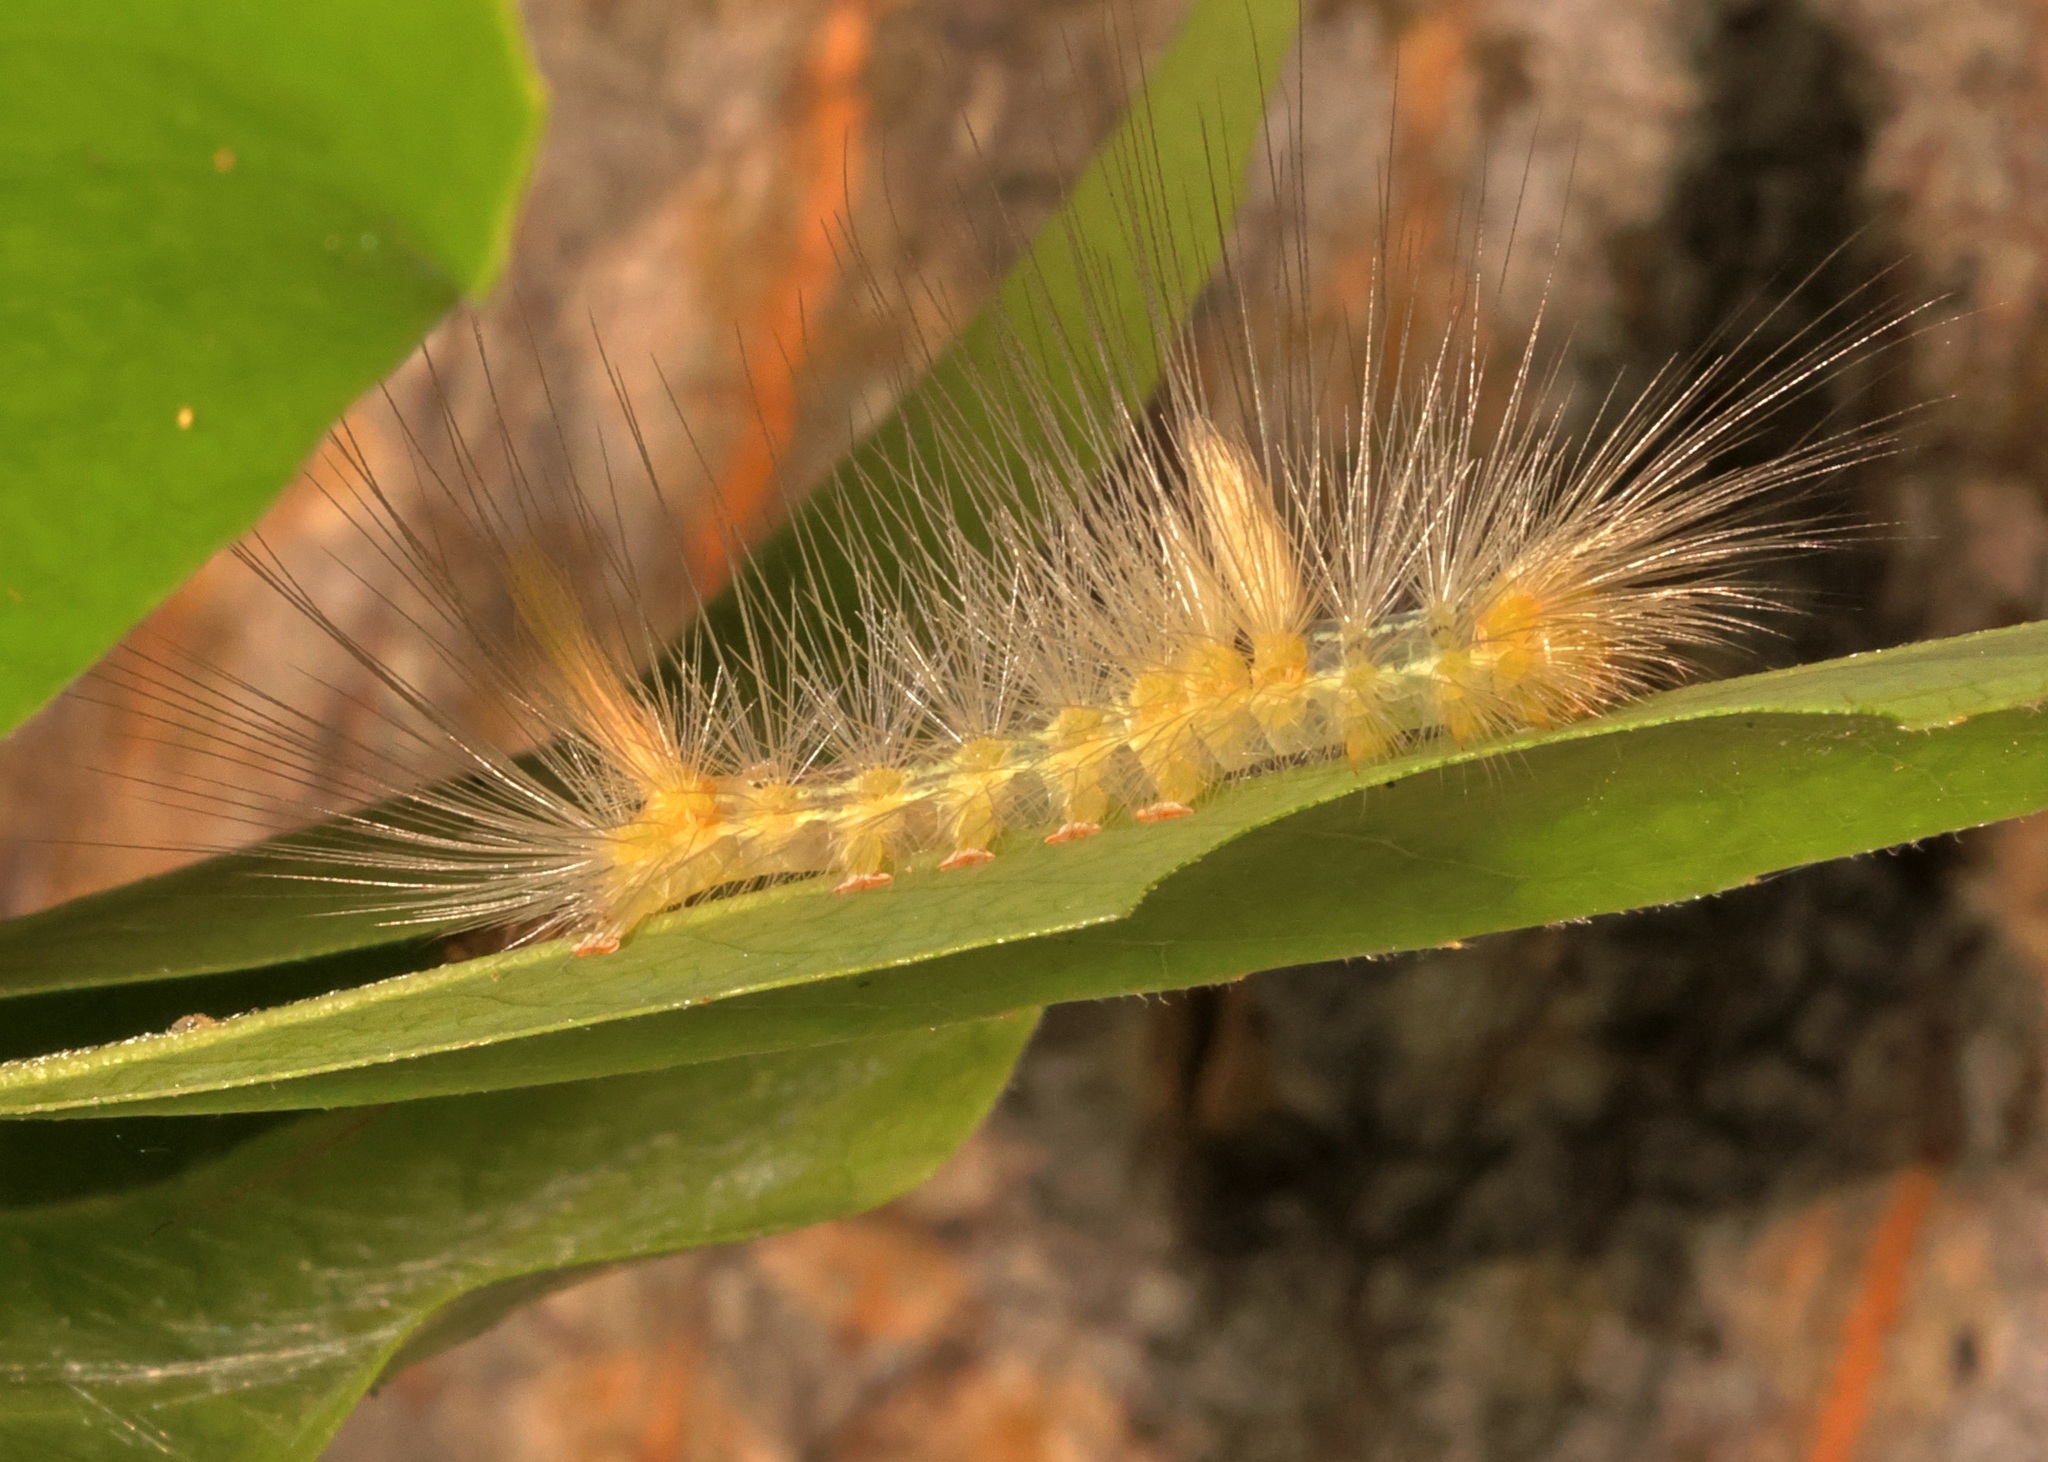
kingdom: Animalia
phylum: Arthropoda
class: Insecta
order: Lepidoptera
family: Erebidae
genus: Calliteara
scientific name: Calliteara grotei
